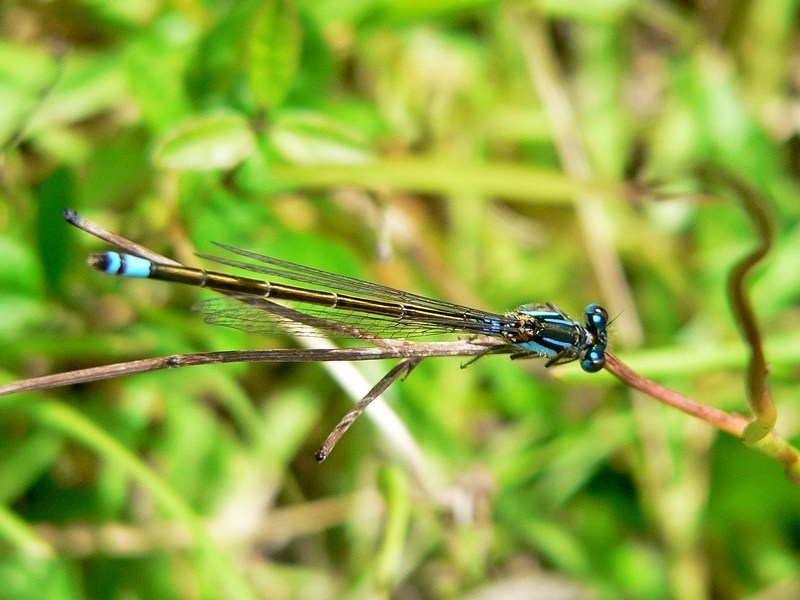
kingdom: Animalia
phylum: Arthropoda
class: Insecta
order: Odonata
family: Coenagrionidae
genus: Ischnura
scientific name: Ischnura heterosticta
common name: Common bluetail
